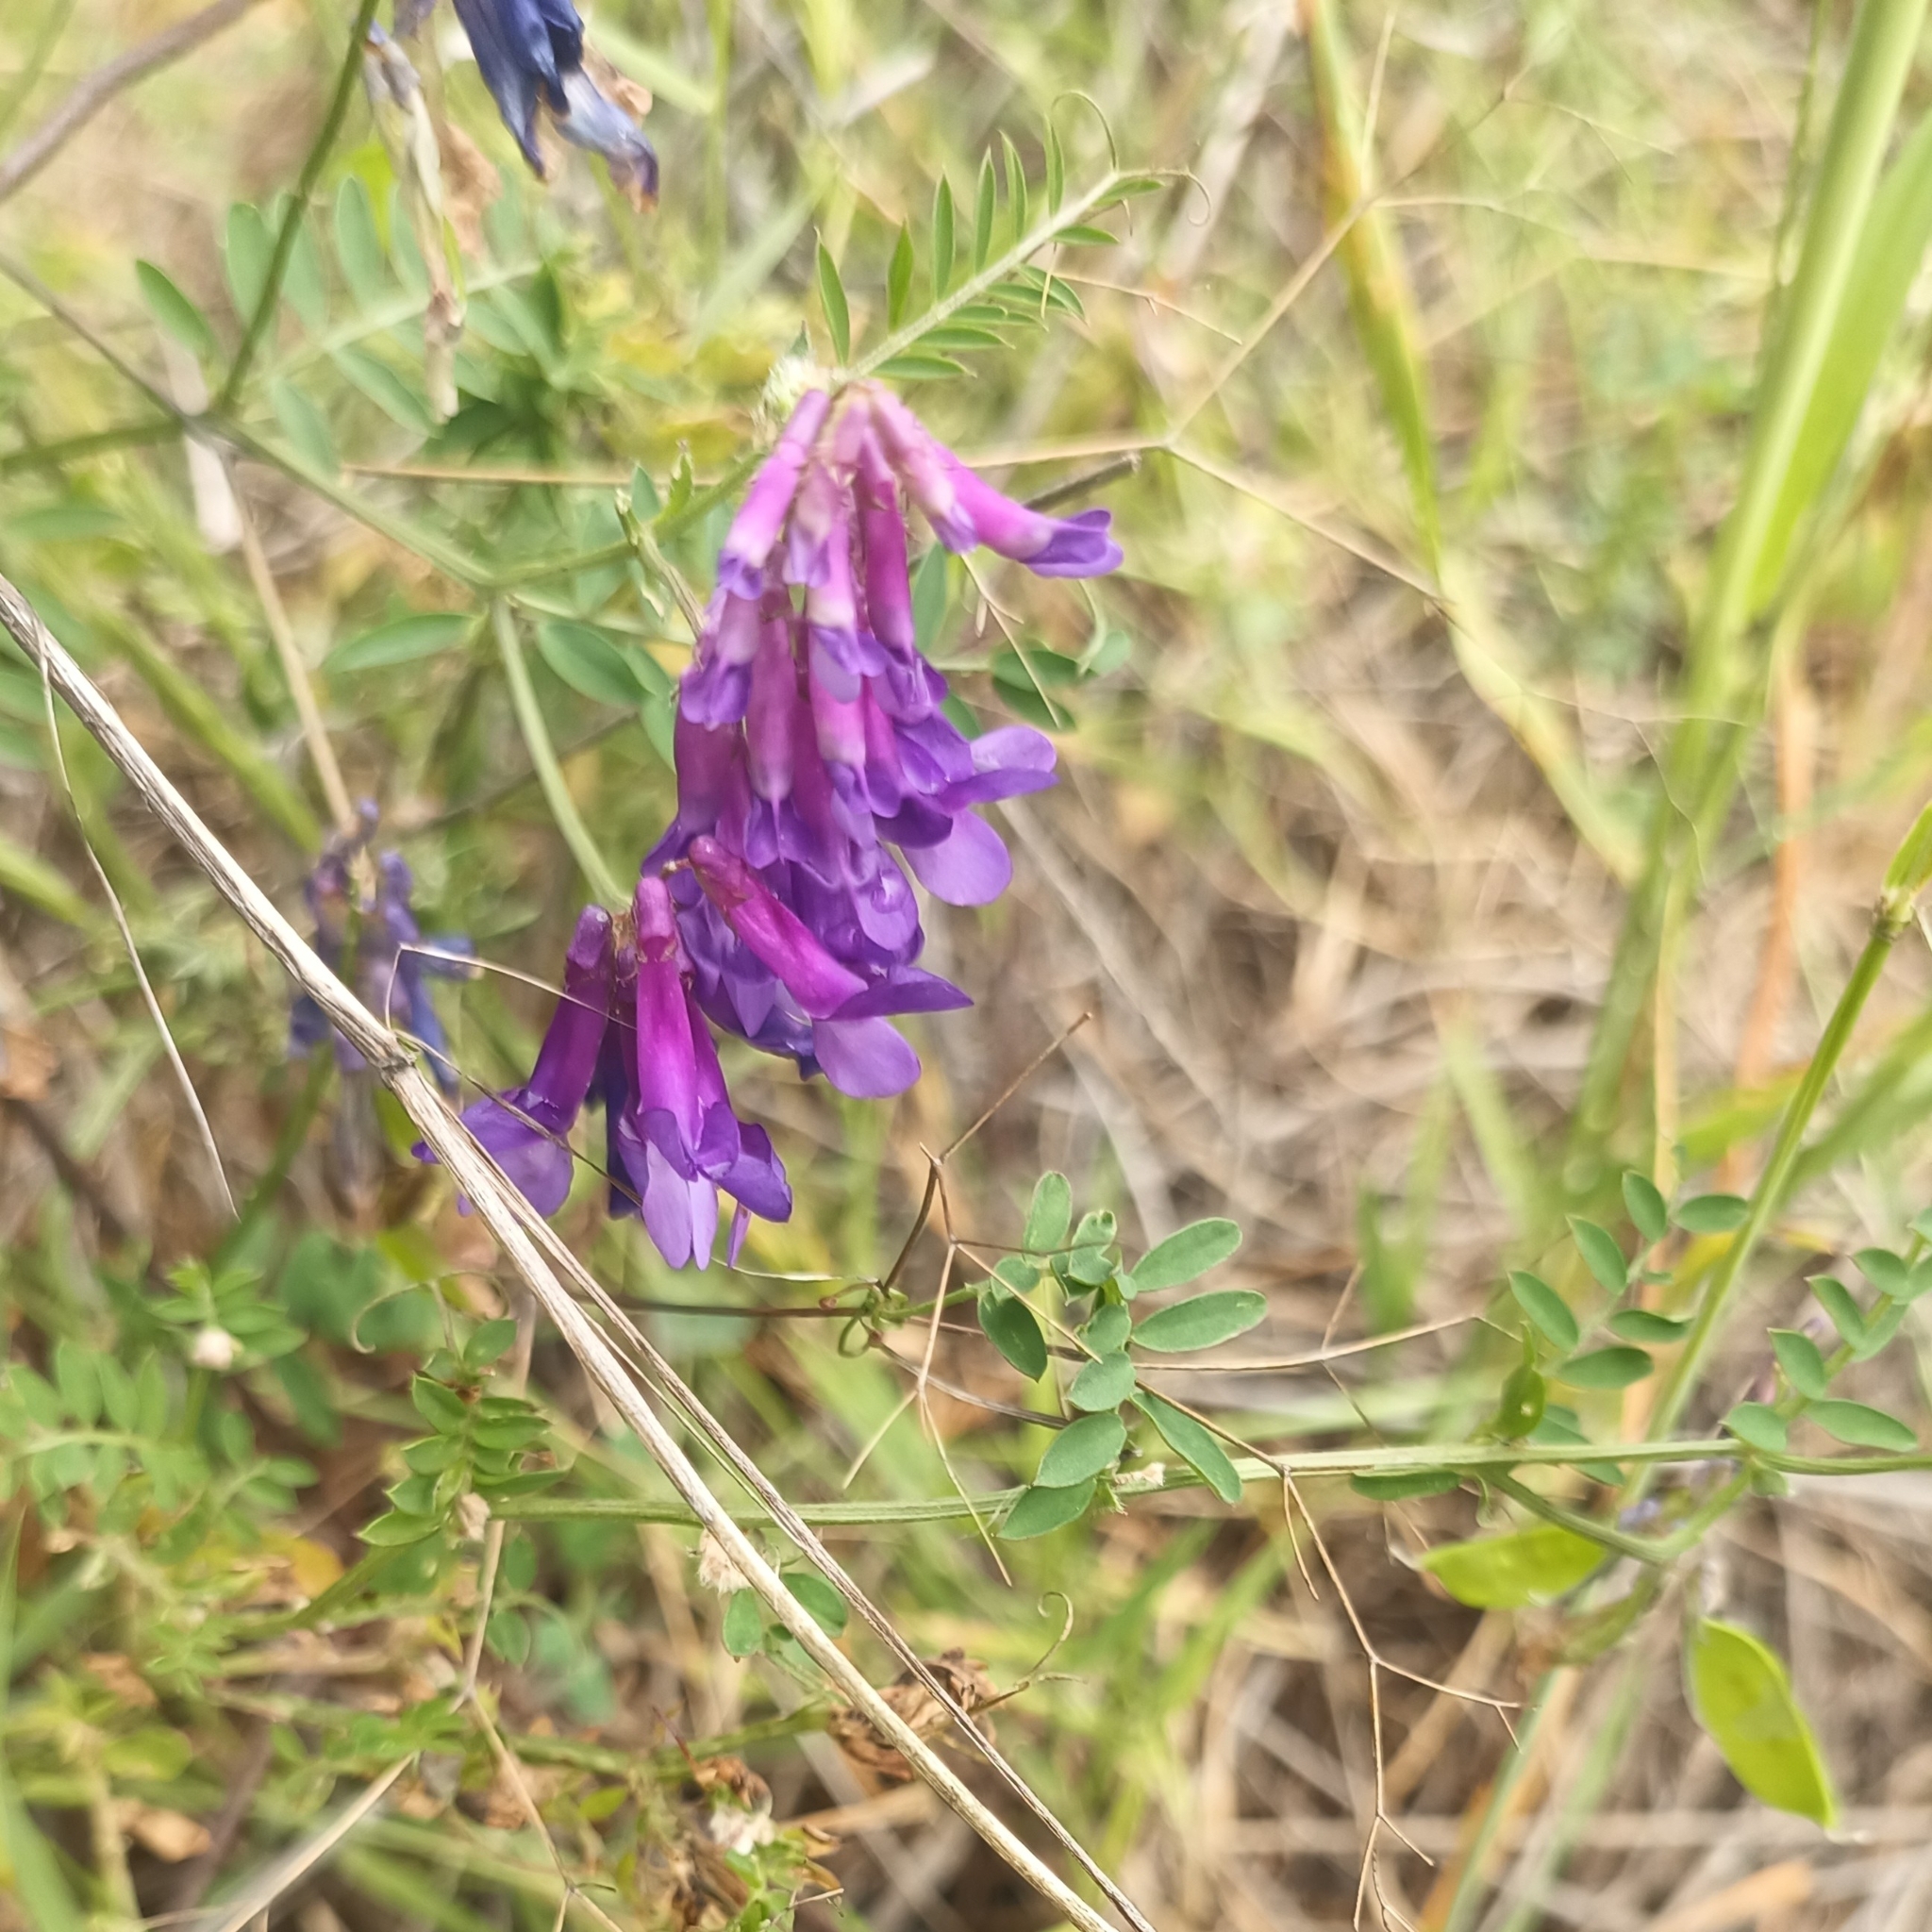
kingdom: Plantae
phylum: Tracheophyta
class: Magnoliopsida
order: Fabales
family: Fabaceae
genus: Vicia
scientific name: Vicia villosa
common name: Fodder vetch
